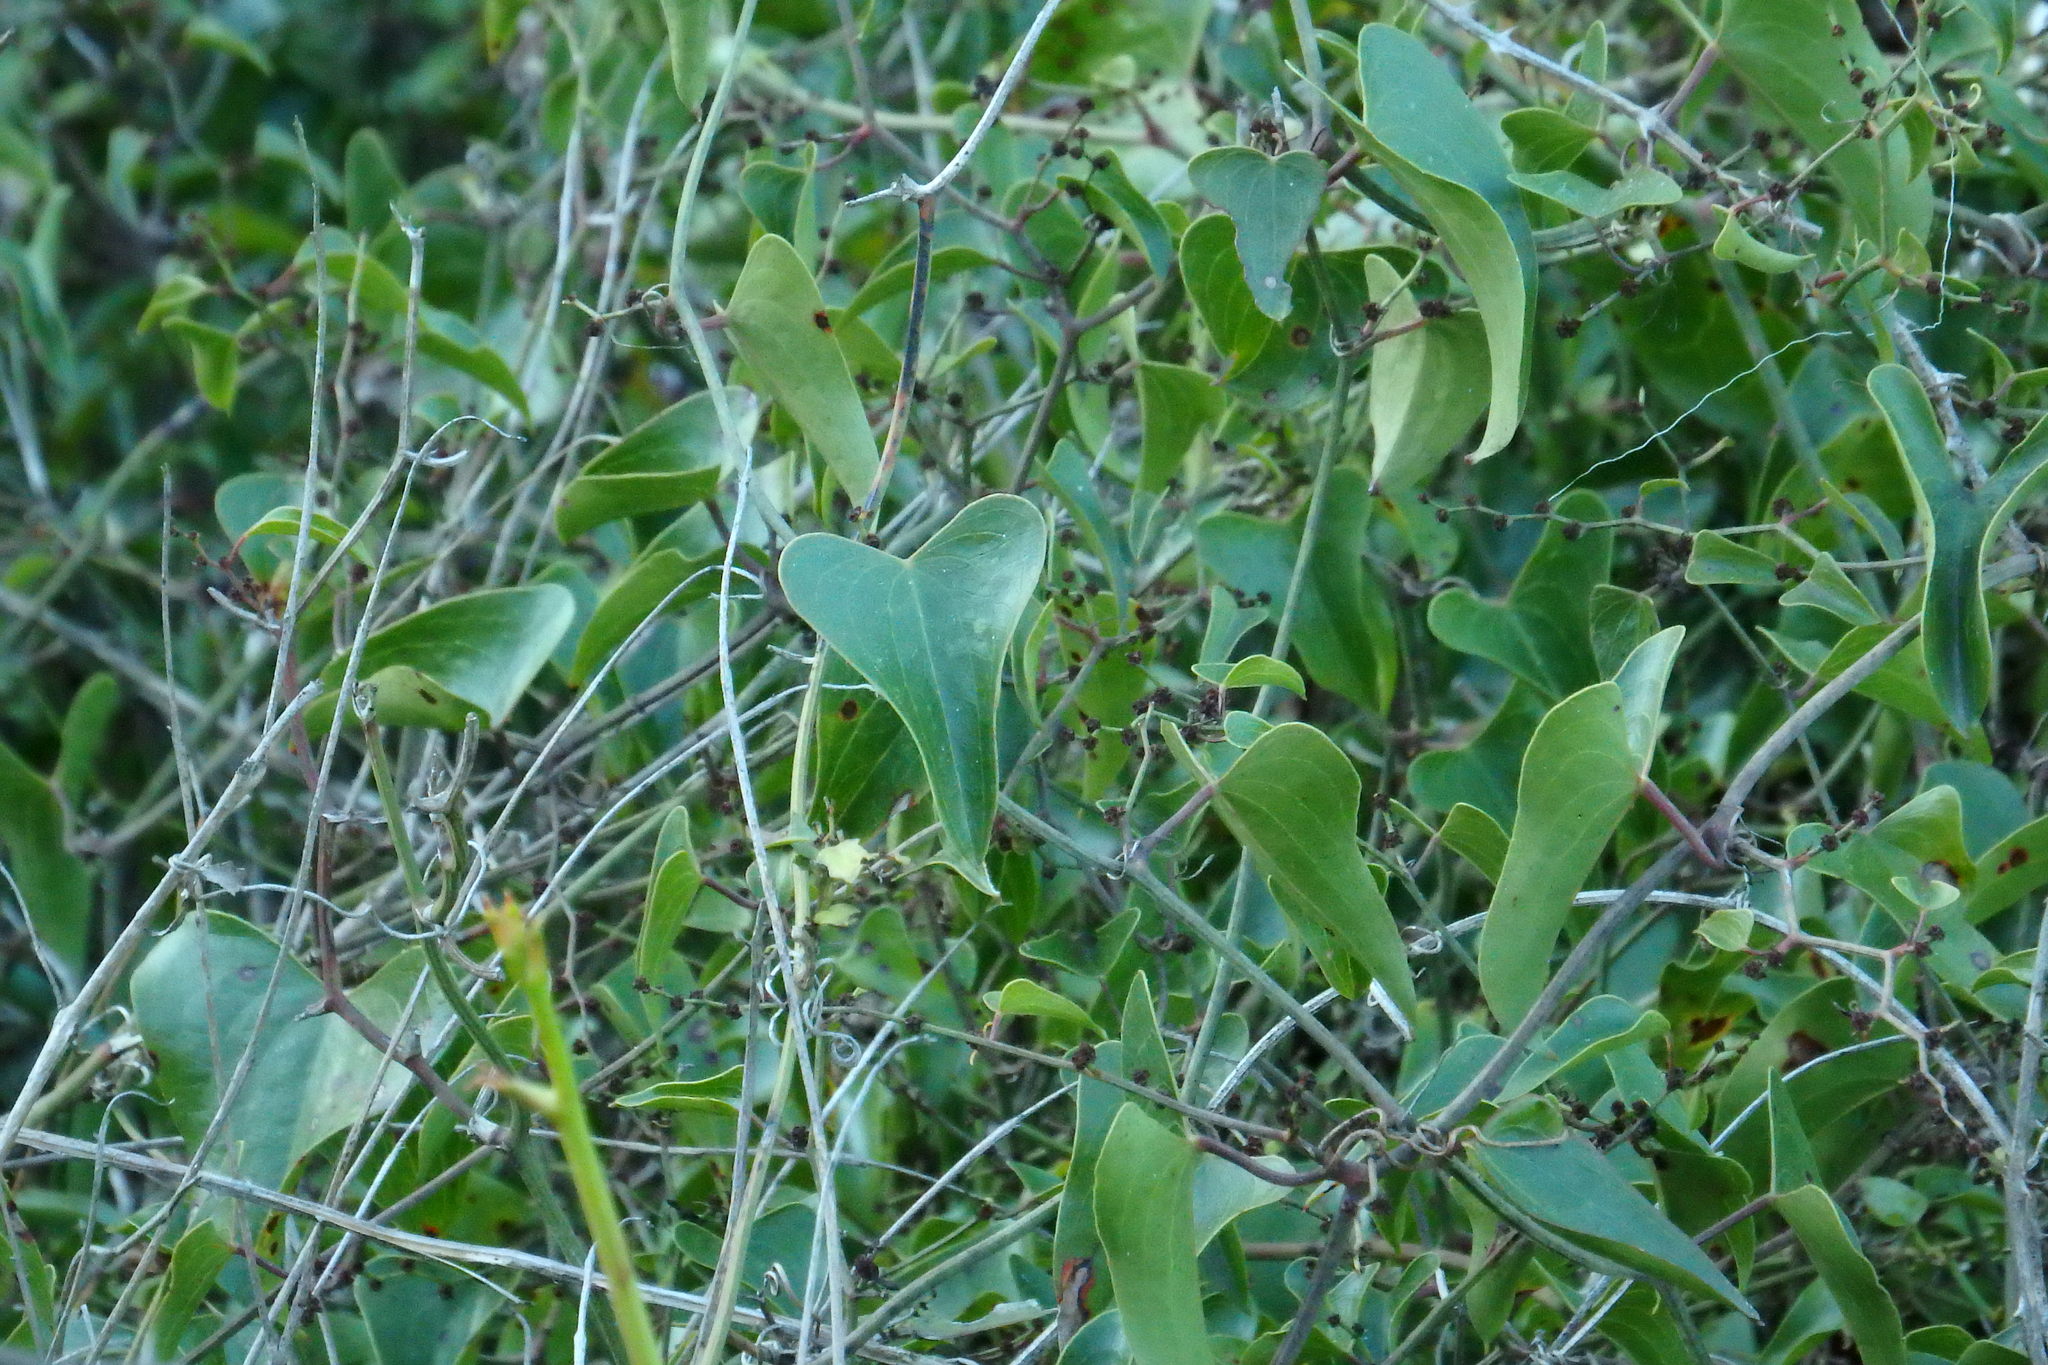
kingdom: Plantae
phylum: Tracheophyta
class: Liliopsida
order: Liliales
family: Smilacaceae
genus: Smilax
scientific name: Smilax aspera
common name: Common smilax
